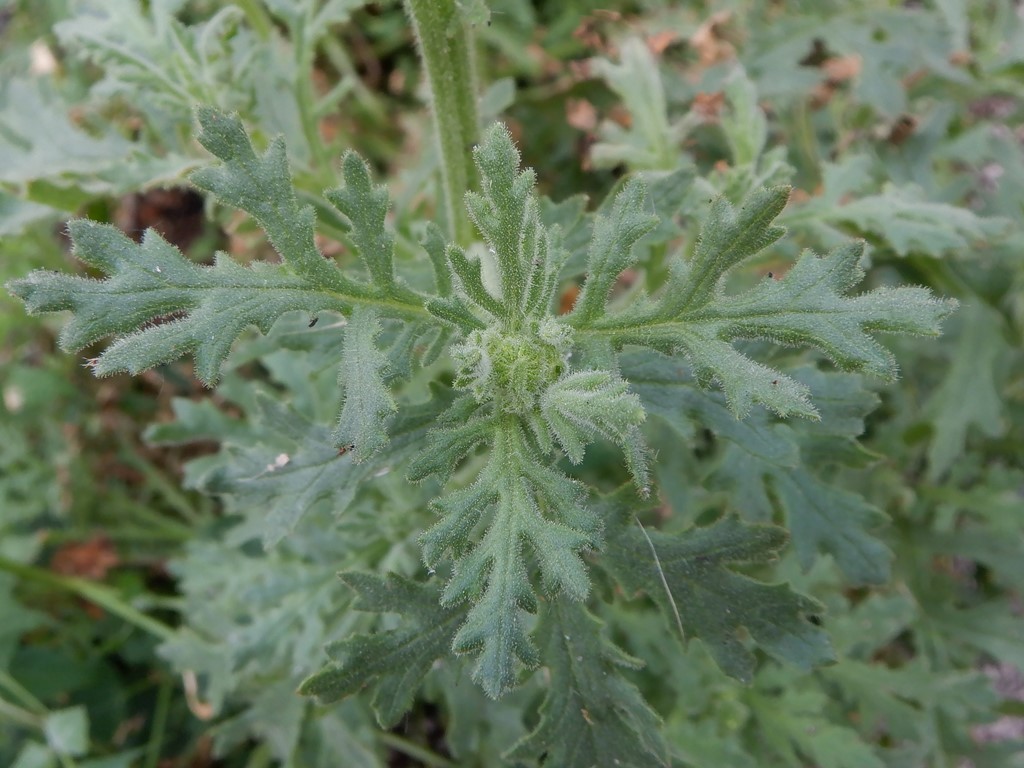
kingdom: Plantae
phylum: Tracheophyta
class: Magnoliopsida
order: Asterales
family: Asteraceae
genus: Senecio
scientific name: Senecio viscosus
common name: Sticky groundsel
